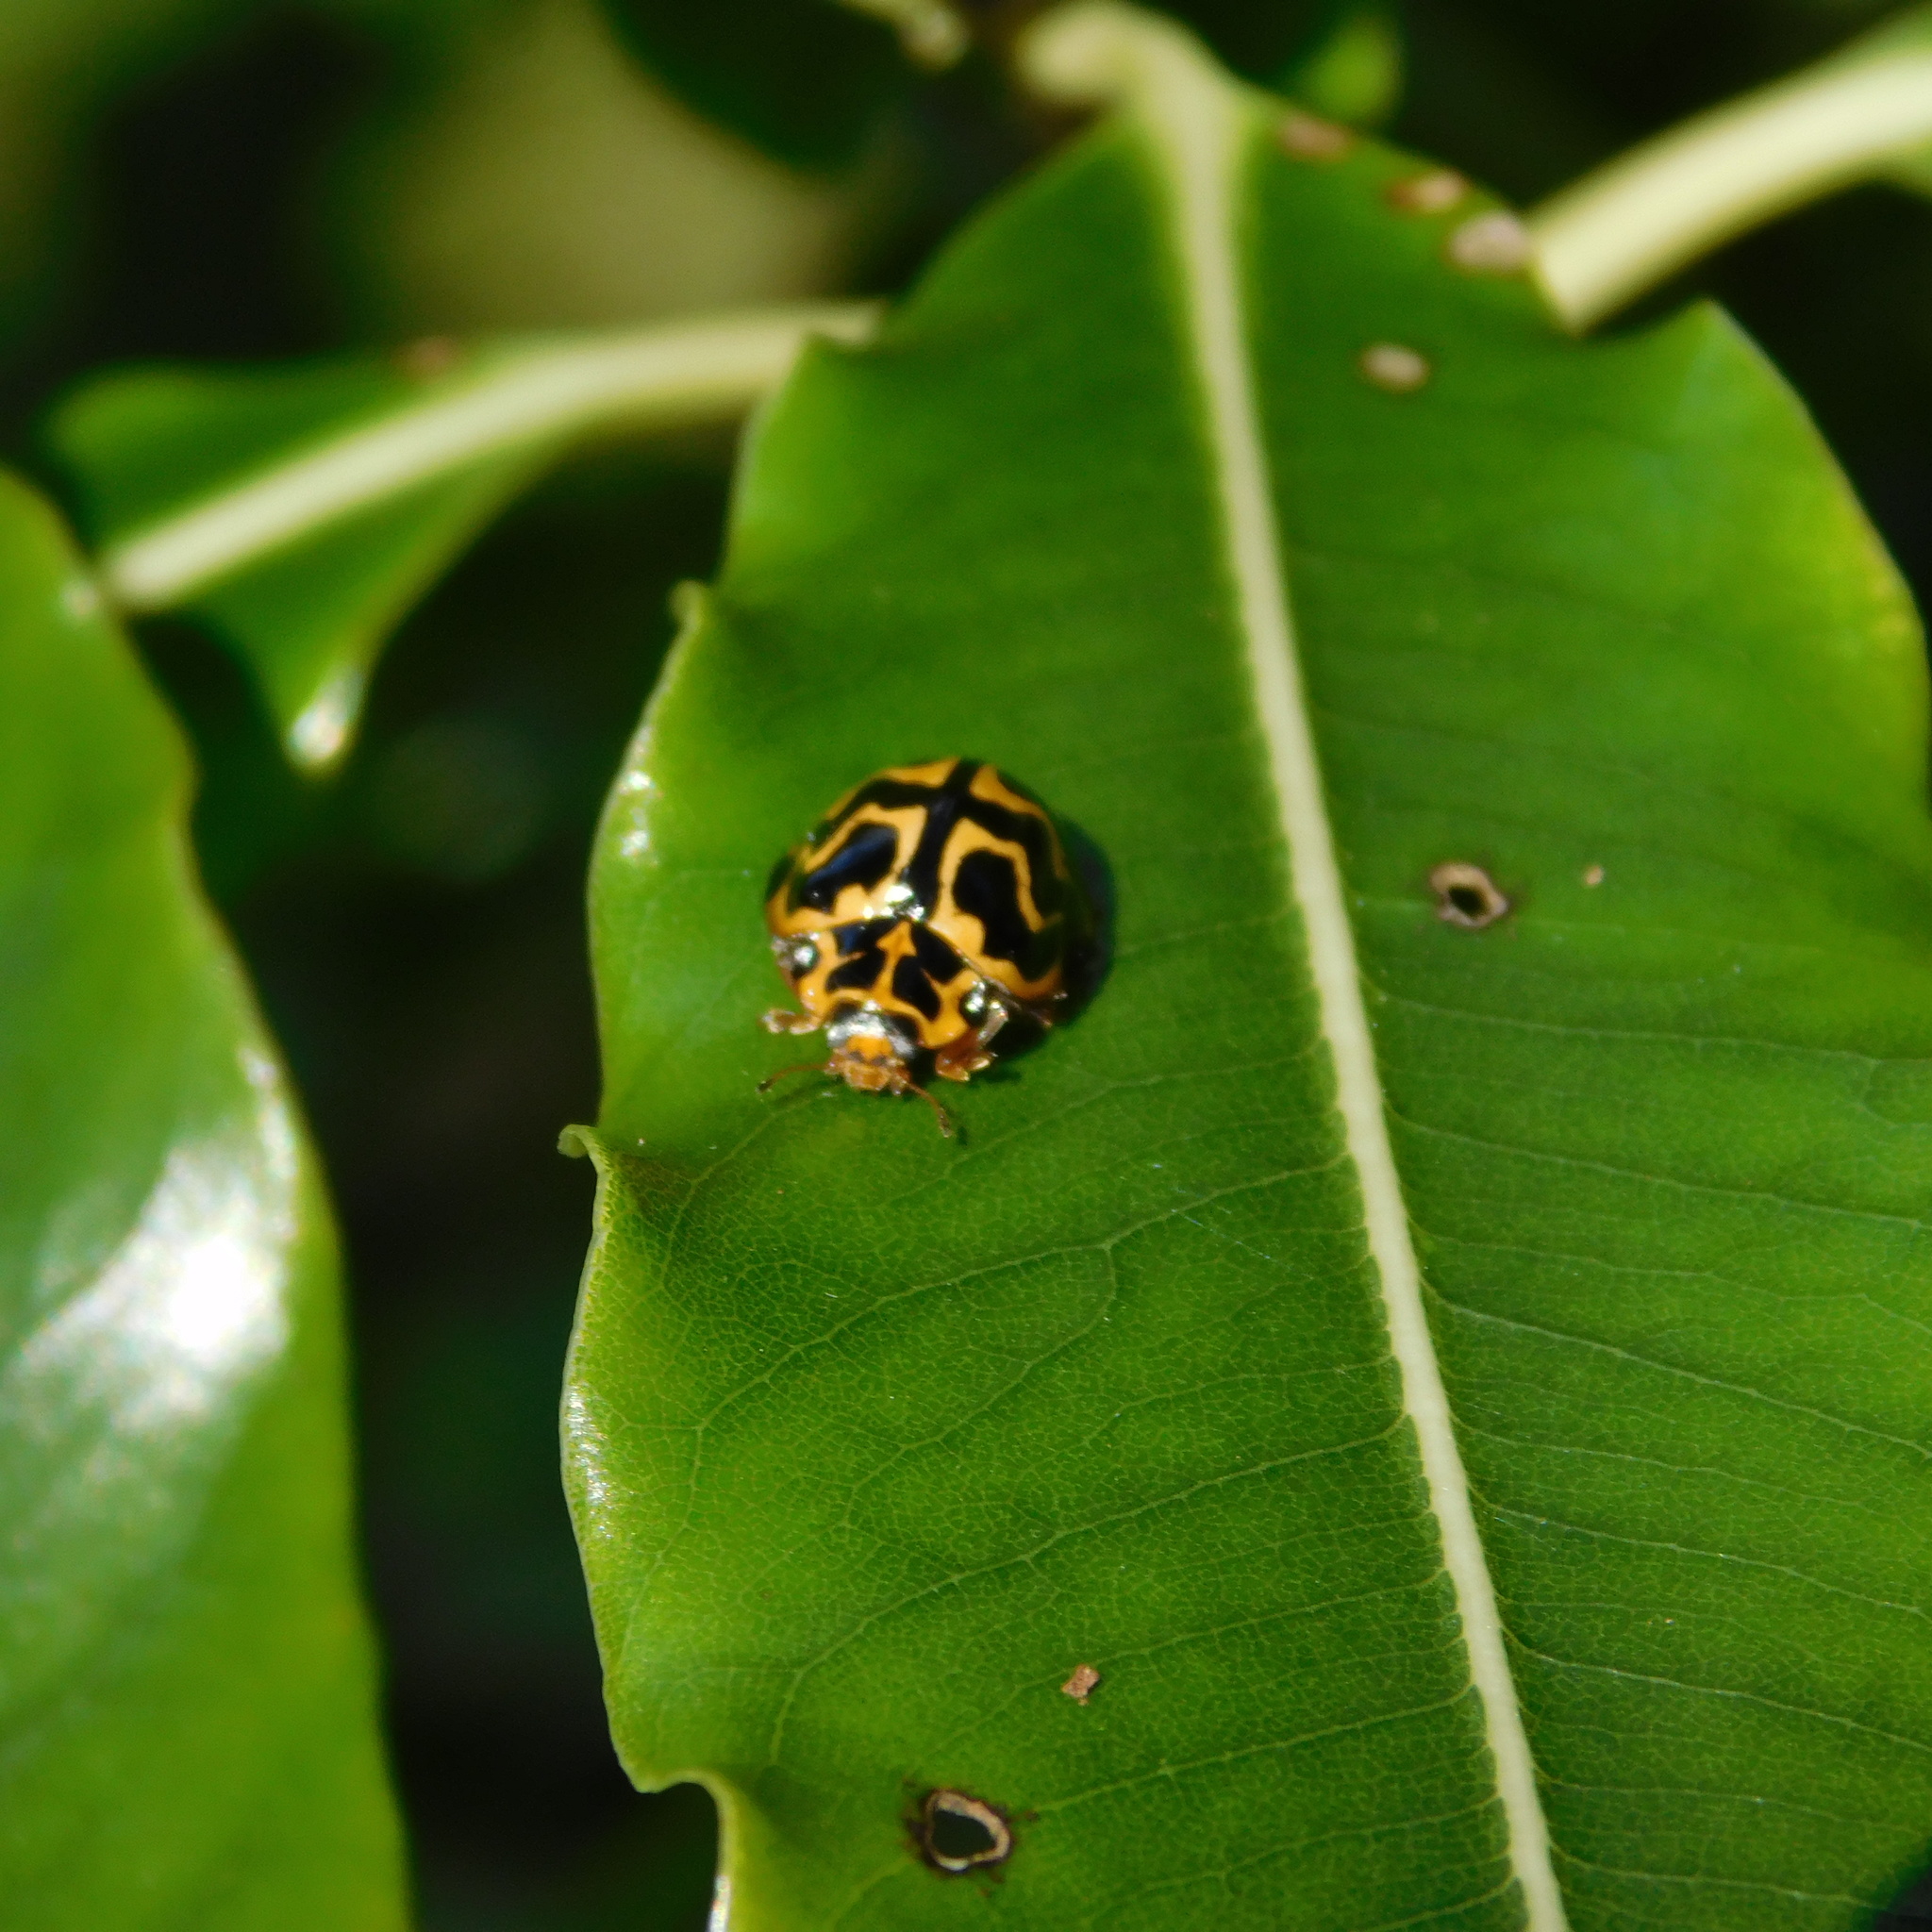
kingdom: Animalia
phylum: Arthropoda
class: Insecta
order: Coleoptera
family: Coccinellidae
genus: Cleobora
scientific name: Cleobora
